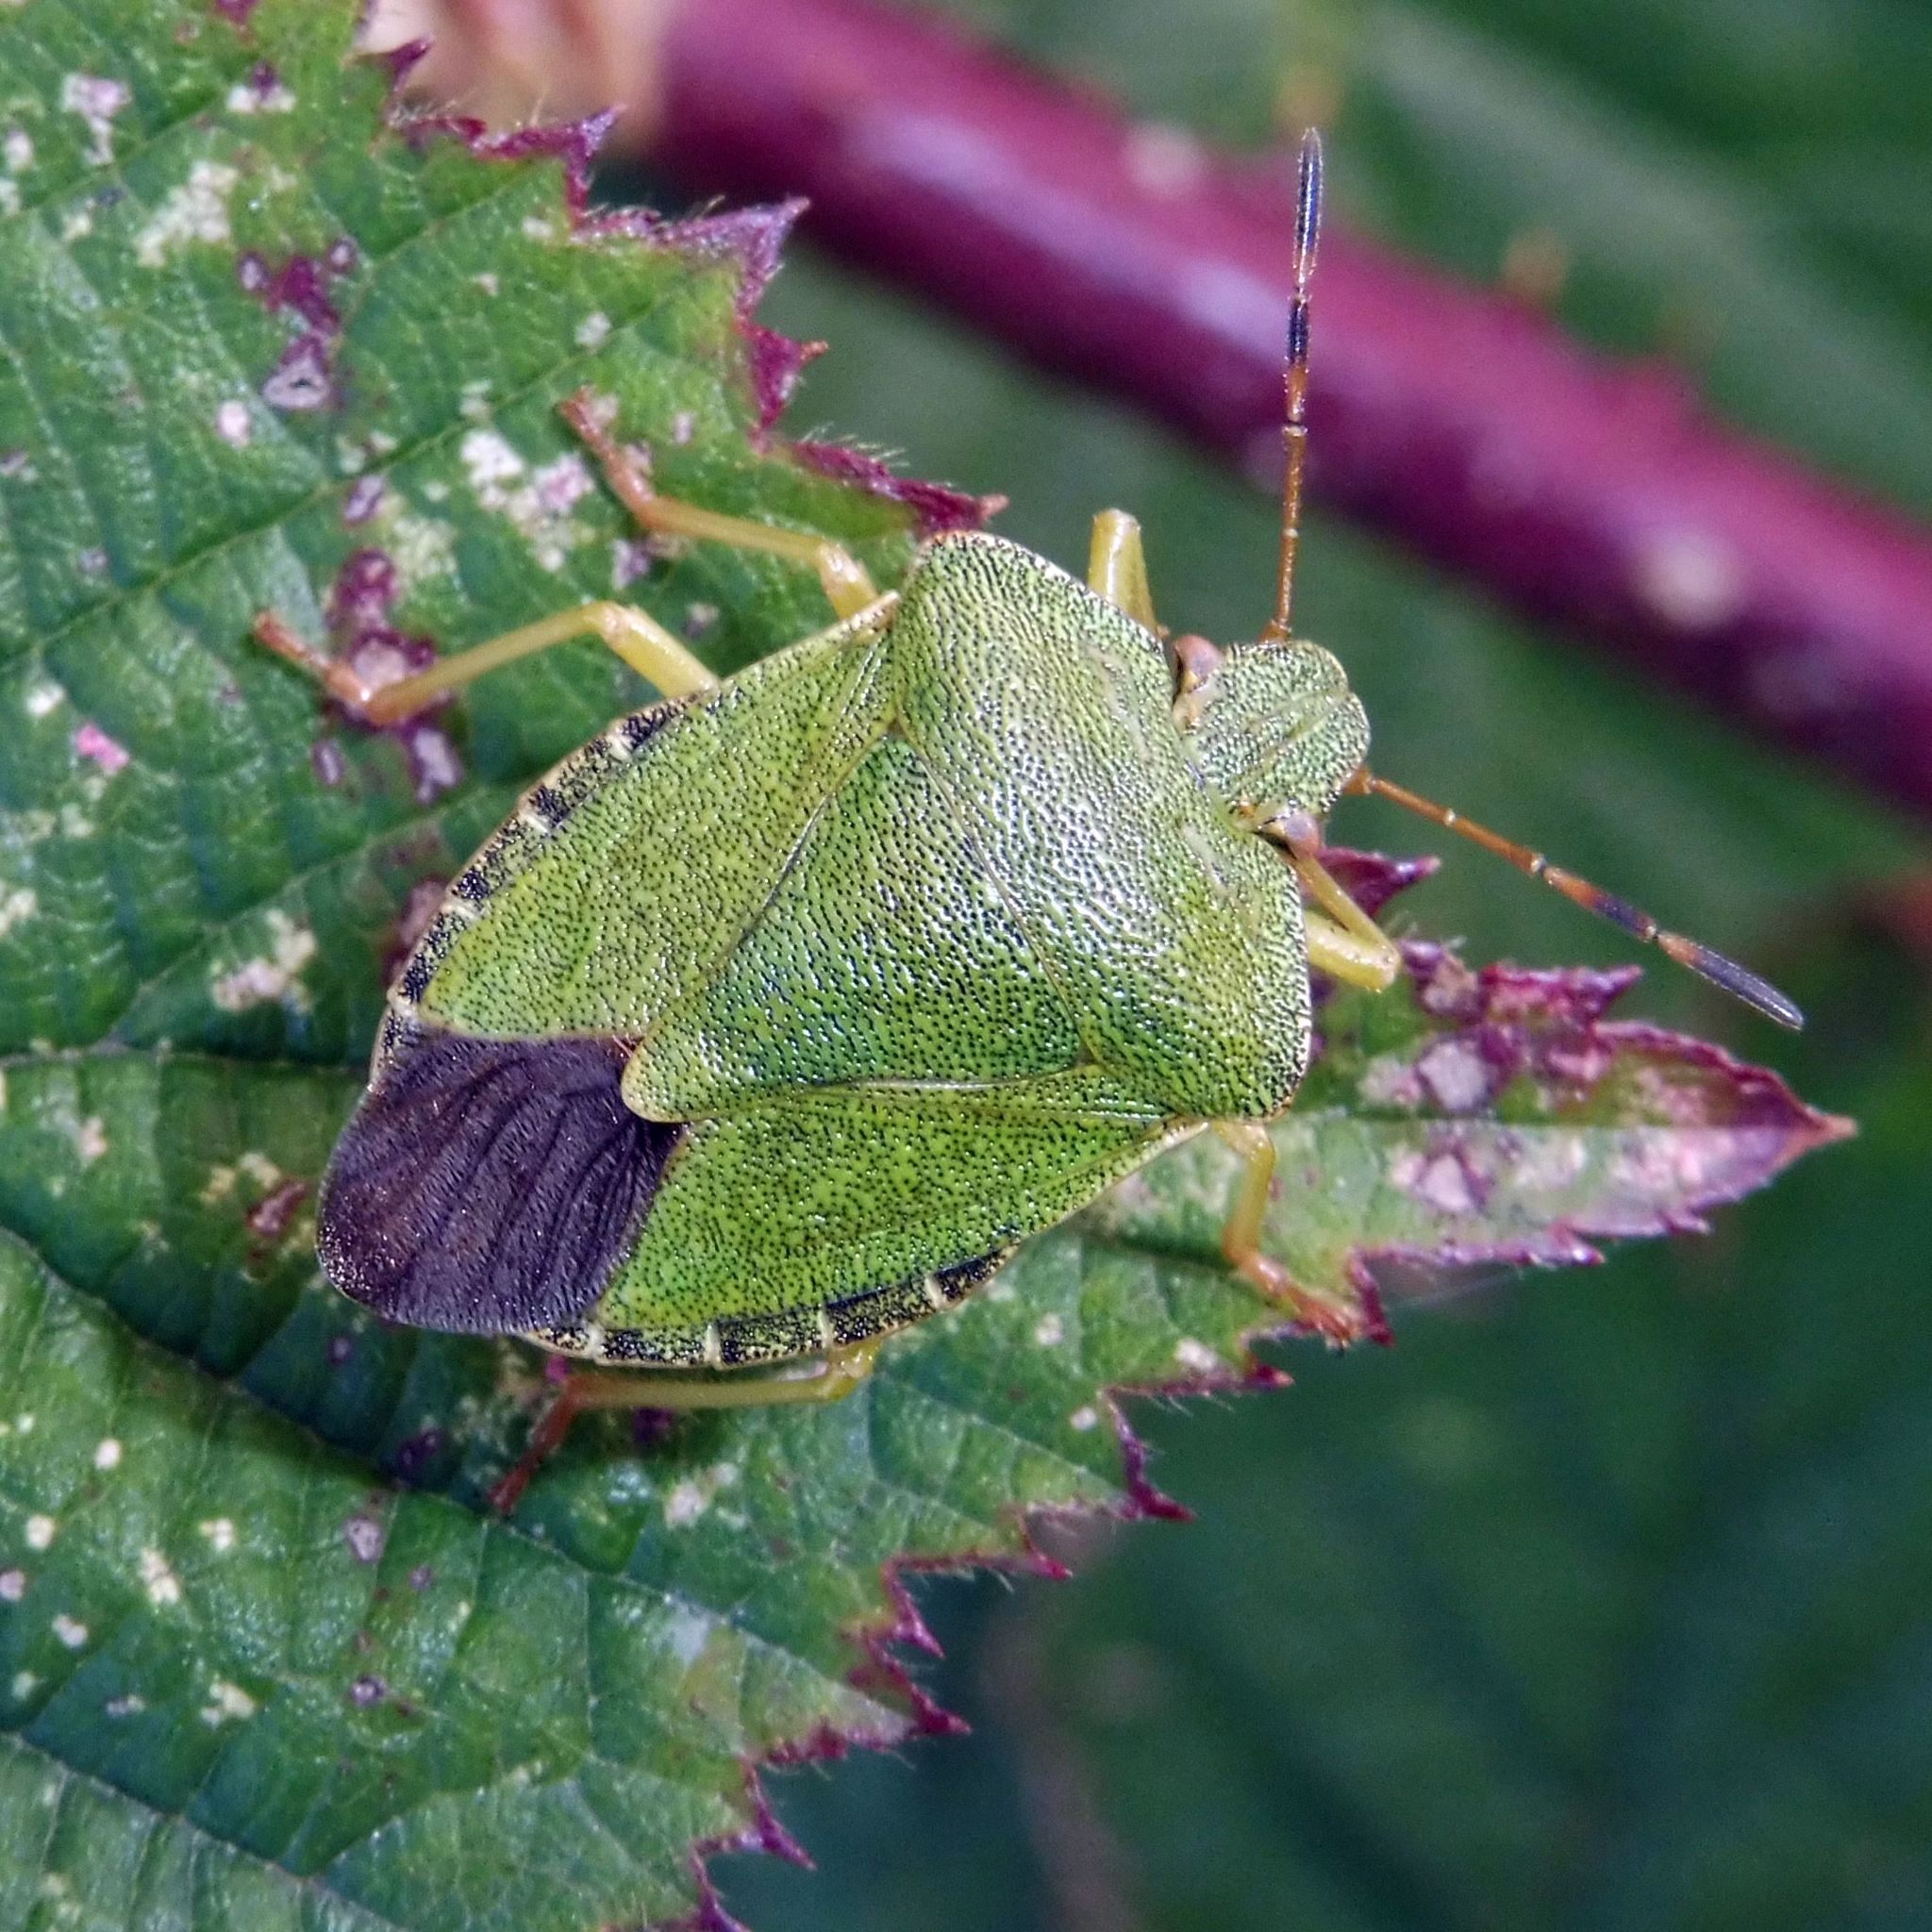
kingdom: Animalia
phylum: Arthropoda
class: Insecta
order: Hemiptera
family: Pentatomidae
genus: Palomena
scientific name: Palomena prasina
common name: Green shieldbug
